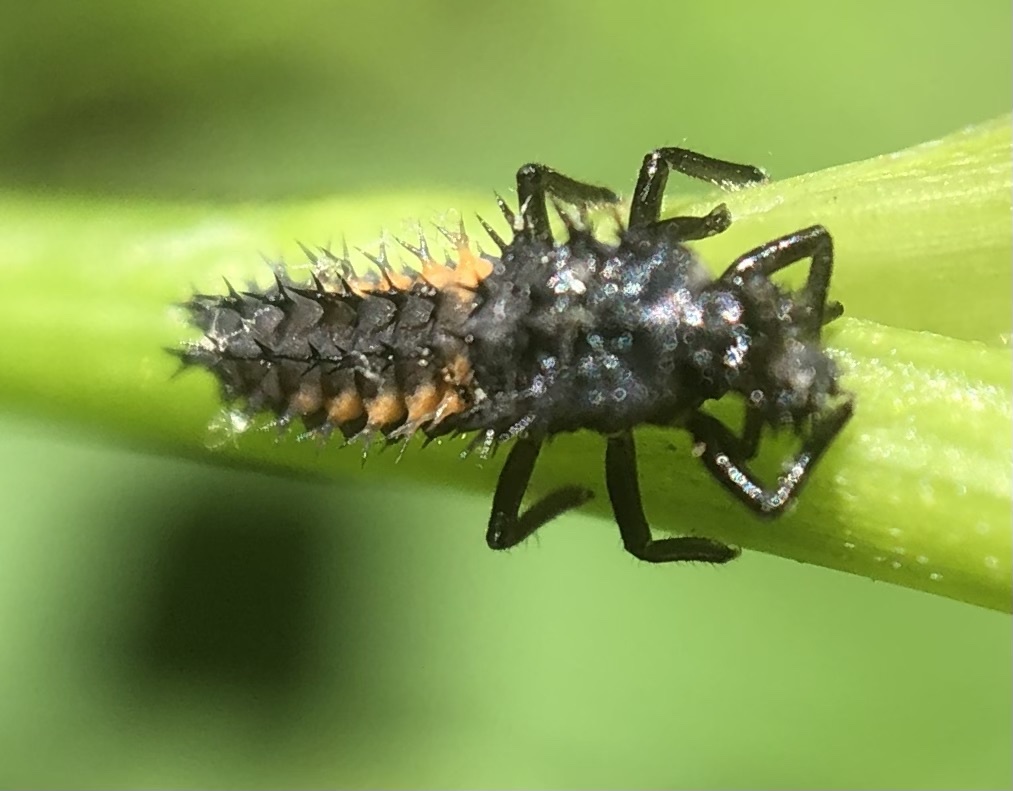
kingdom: Animalia
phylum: Arthropoda
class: Insecta
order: Coleoptera
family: Coccinellidae
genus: Harmonia
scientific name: Harmonia axyridis
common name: Harlequin ladybird
